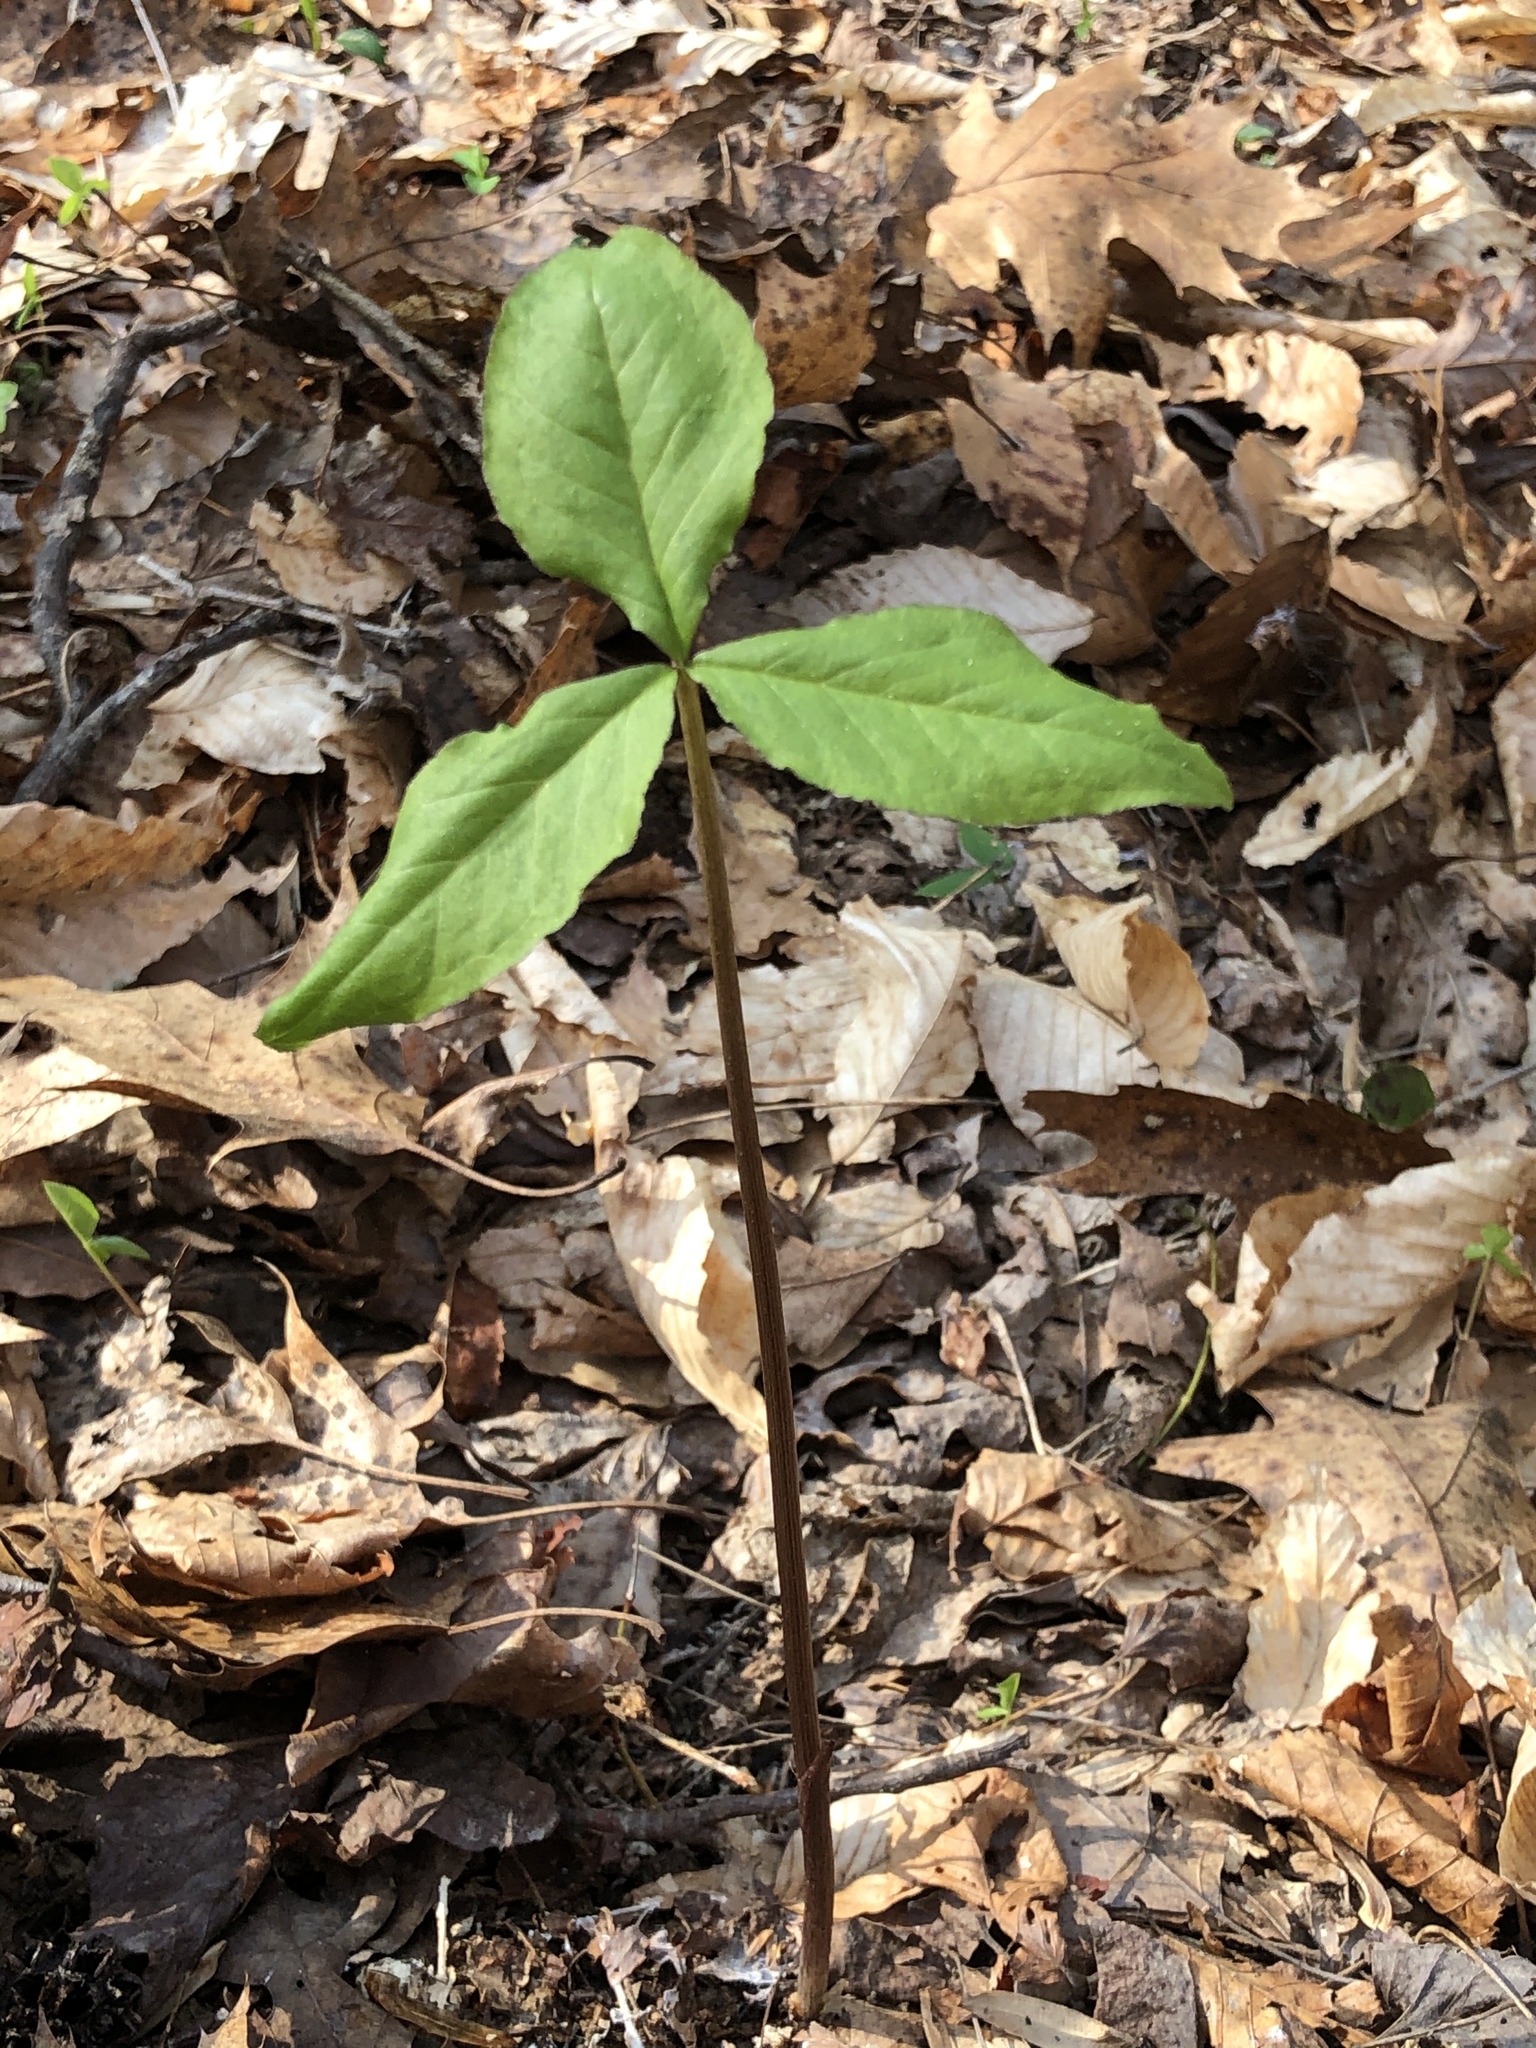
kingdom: Plantae
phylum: Tracheophyta
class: Liliopsida
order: Alismatales
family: Araceae
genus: Arisaema
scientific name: Arisaema triphyllum
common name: Jack-in-the-pulpit
